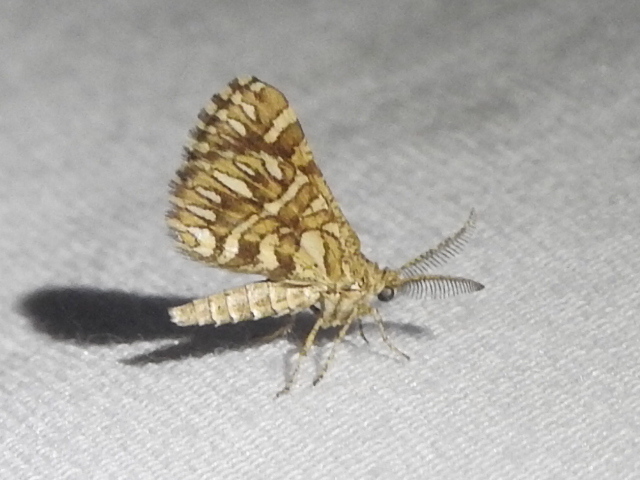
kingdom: Animalia
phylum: Arthropoda
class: Insecta
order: Lepidoptera
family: Geometridae
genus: Narraga
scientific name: Narraga fimetaria
